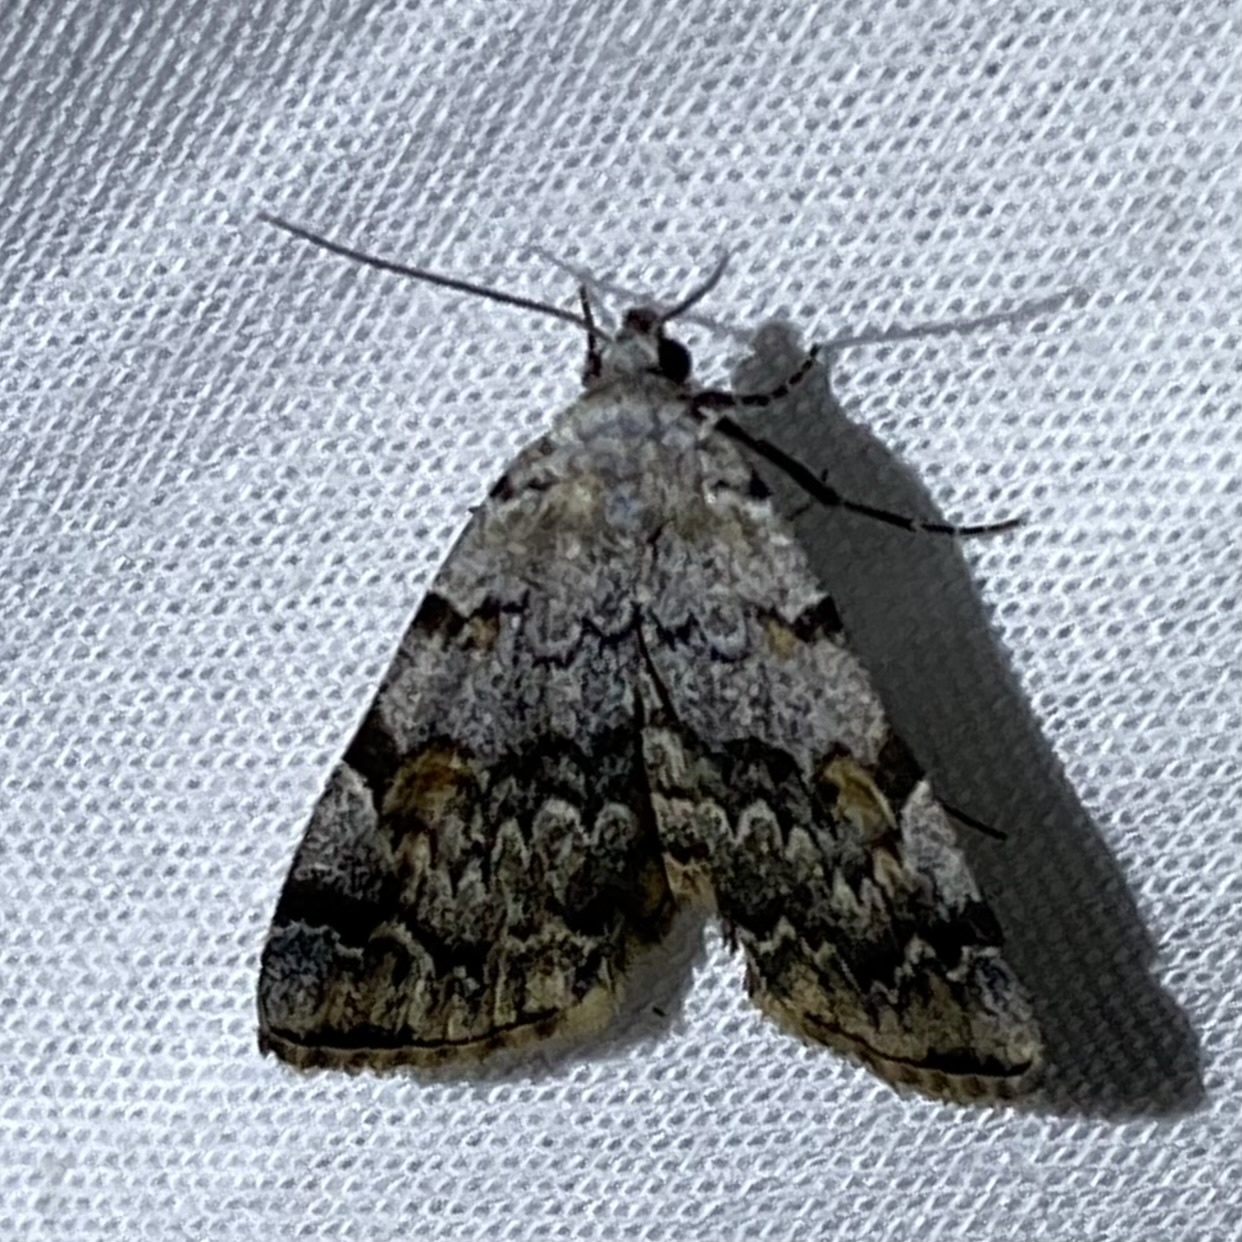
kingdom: Animalia
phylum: Arthropoda
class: Insecta
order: Lepidoptera
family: Erebidae
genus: Idia
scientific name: Idia americalis
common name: American idia moth
